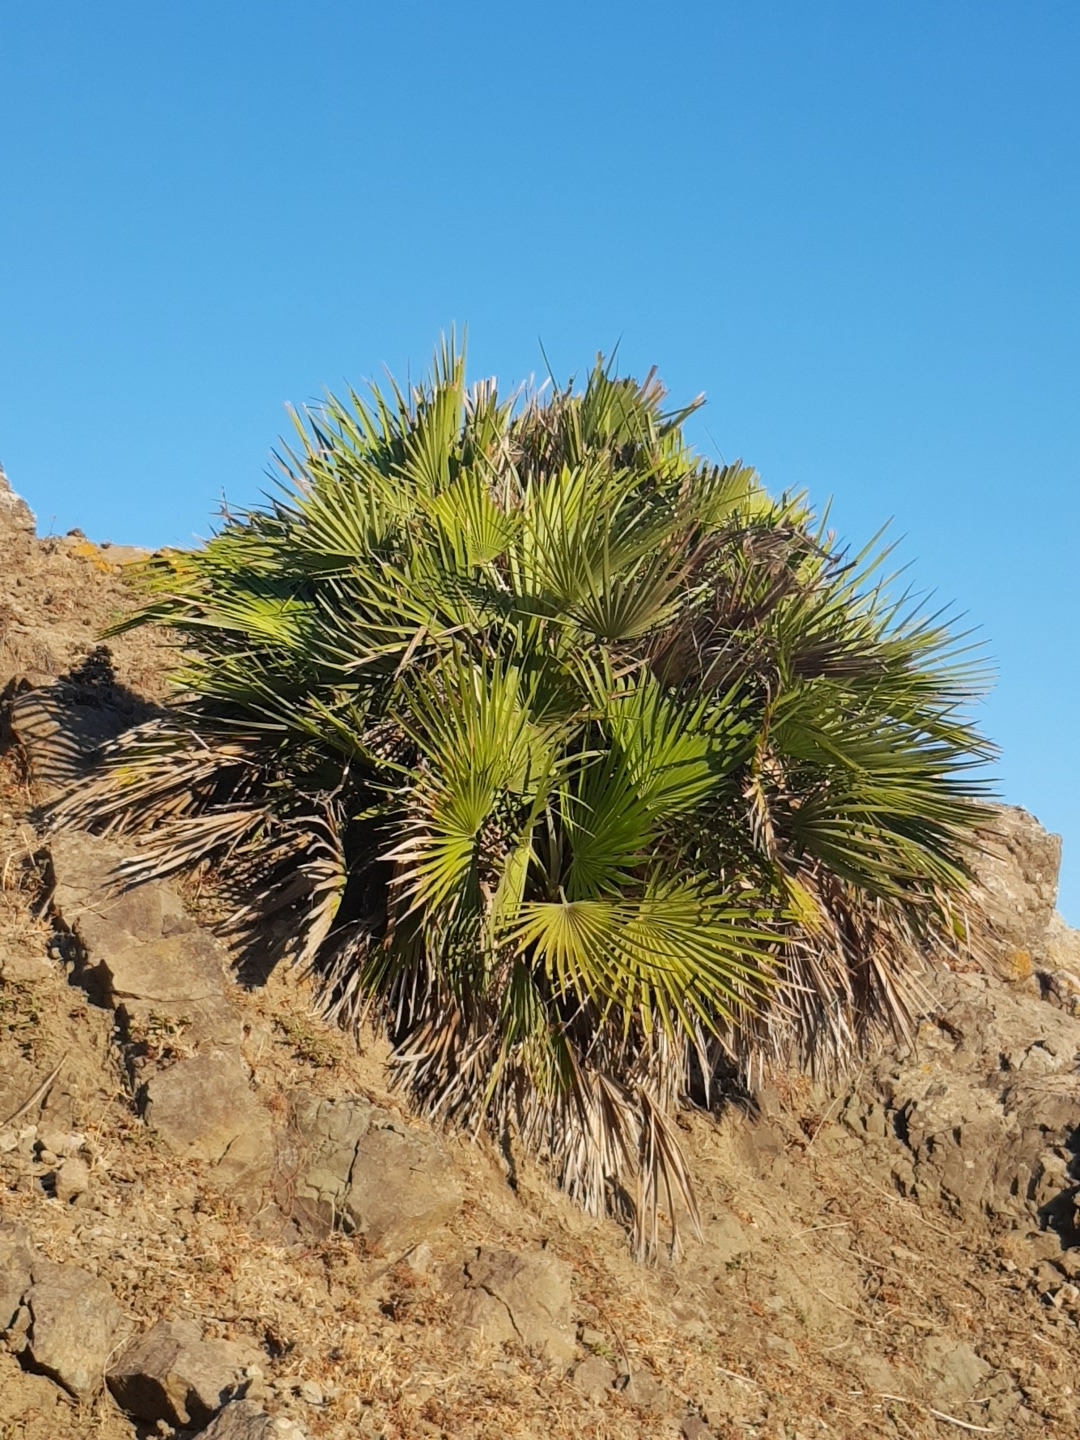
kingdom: Plantae
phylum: Tracheophyta
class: Liliopsida
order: Arecales
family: Arecaceae
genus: Chamaerops
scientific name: Chamaerops humilis
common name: Dwarf fan palm
